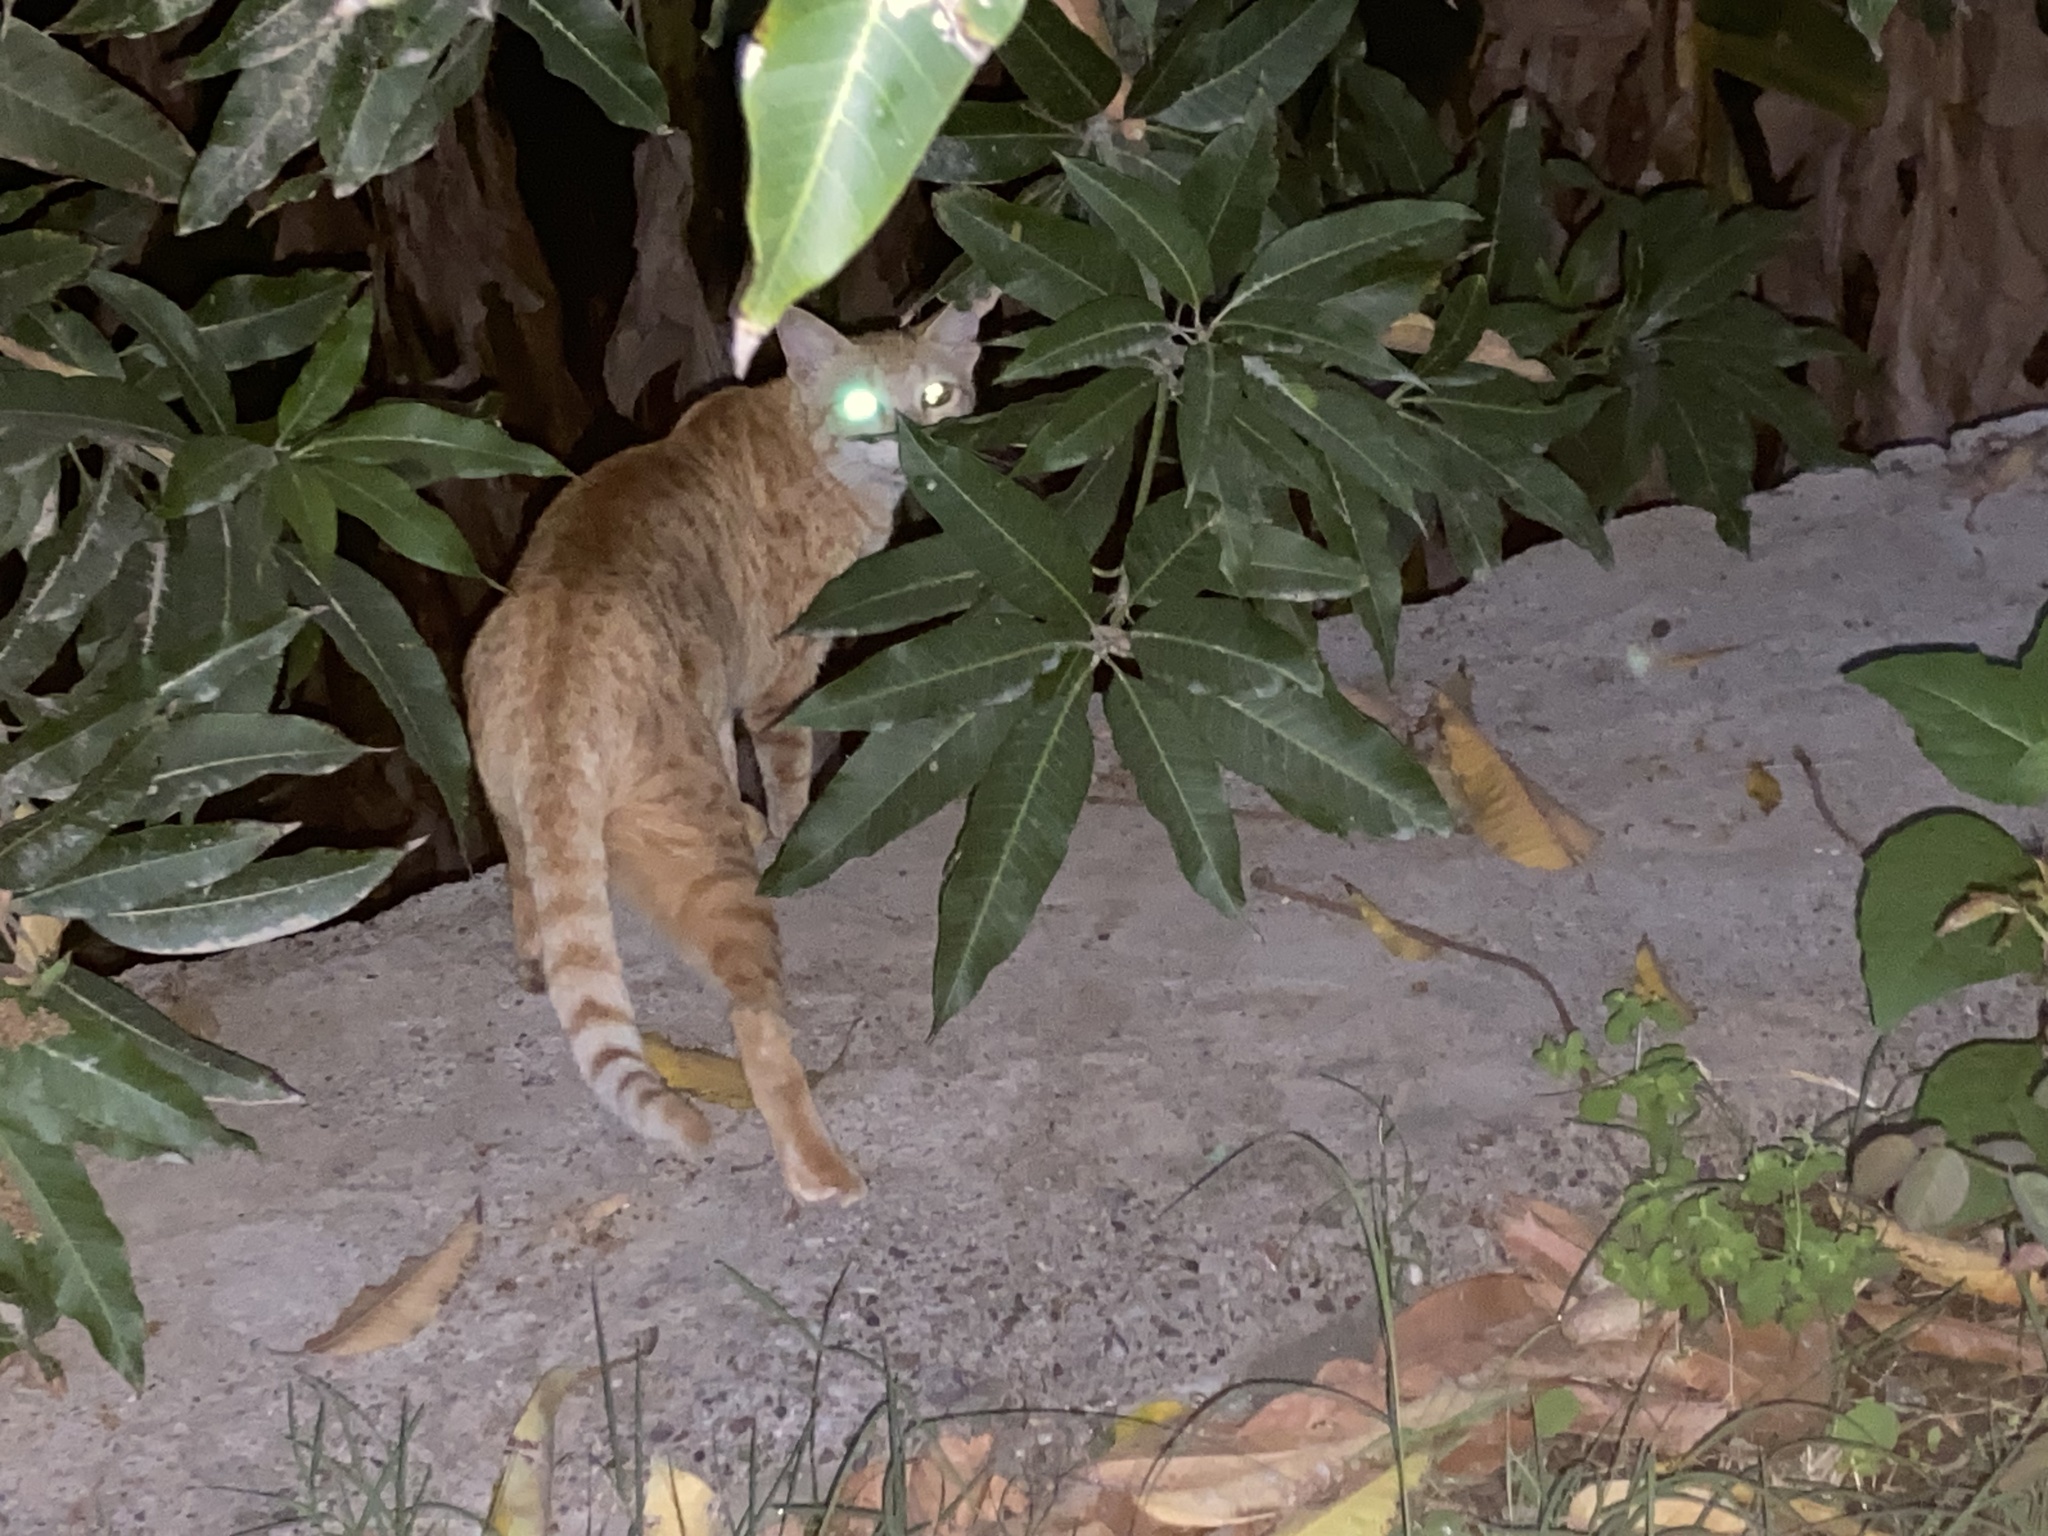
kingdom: Animalia
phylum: Chordata
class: Mammalia
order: Carnivora
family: Felidae
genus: Felis
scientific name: Felis catus
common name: Domestic cat
